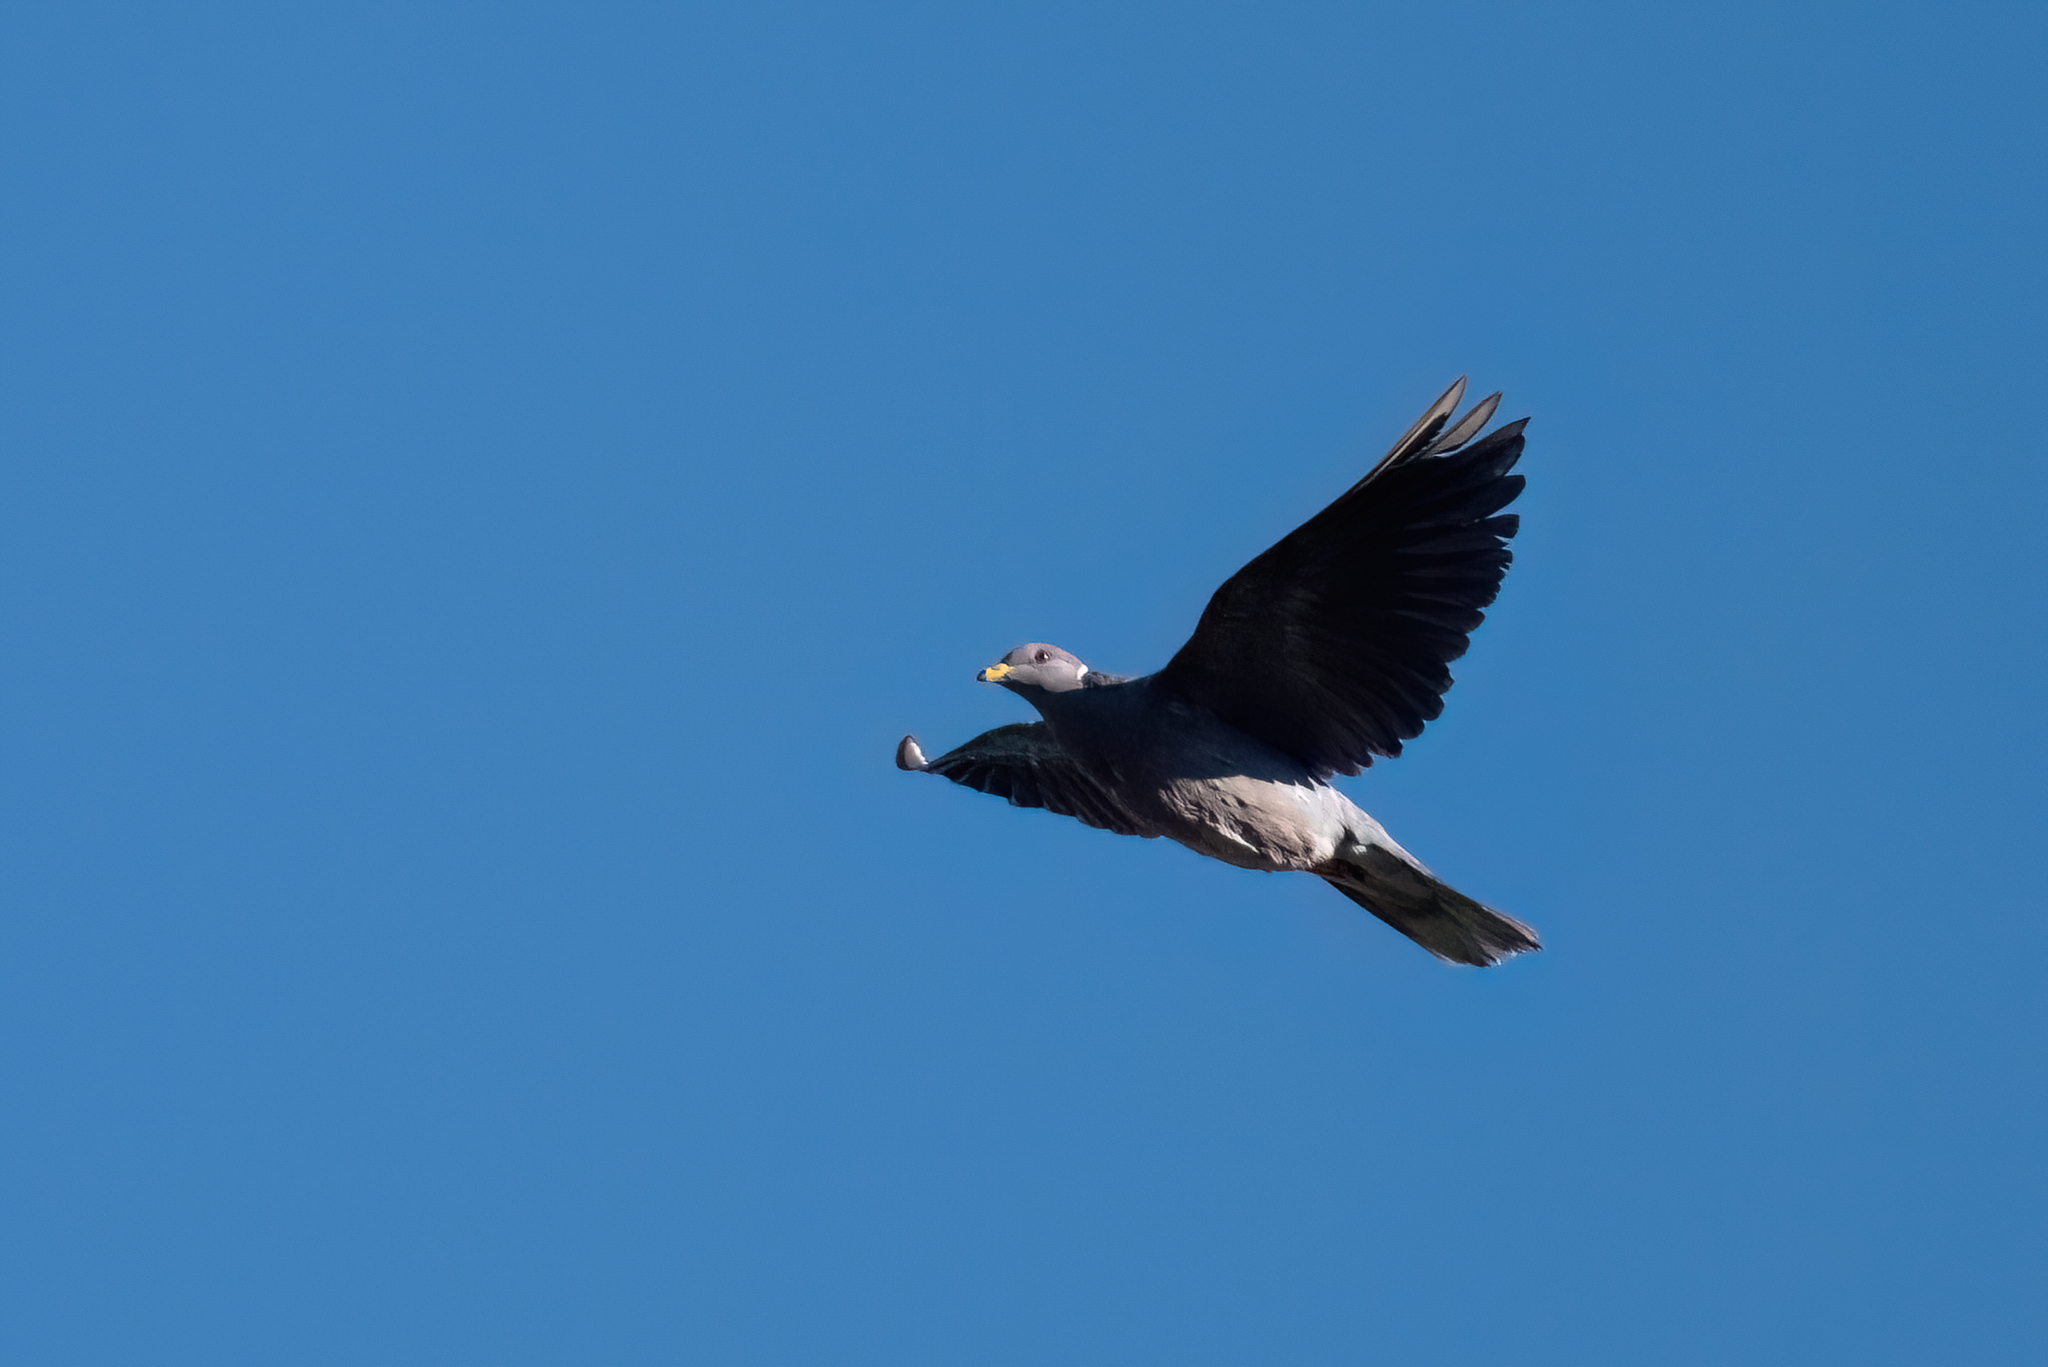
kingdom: Animalia
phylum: Chordata
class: Aves
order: Columbiformes
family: Columbidae
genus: Patagioenas
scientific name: Patagioenas fasciata
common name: Band-tailed pigeon
